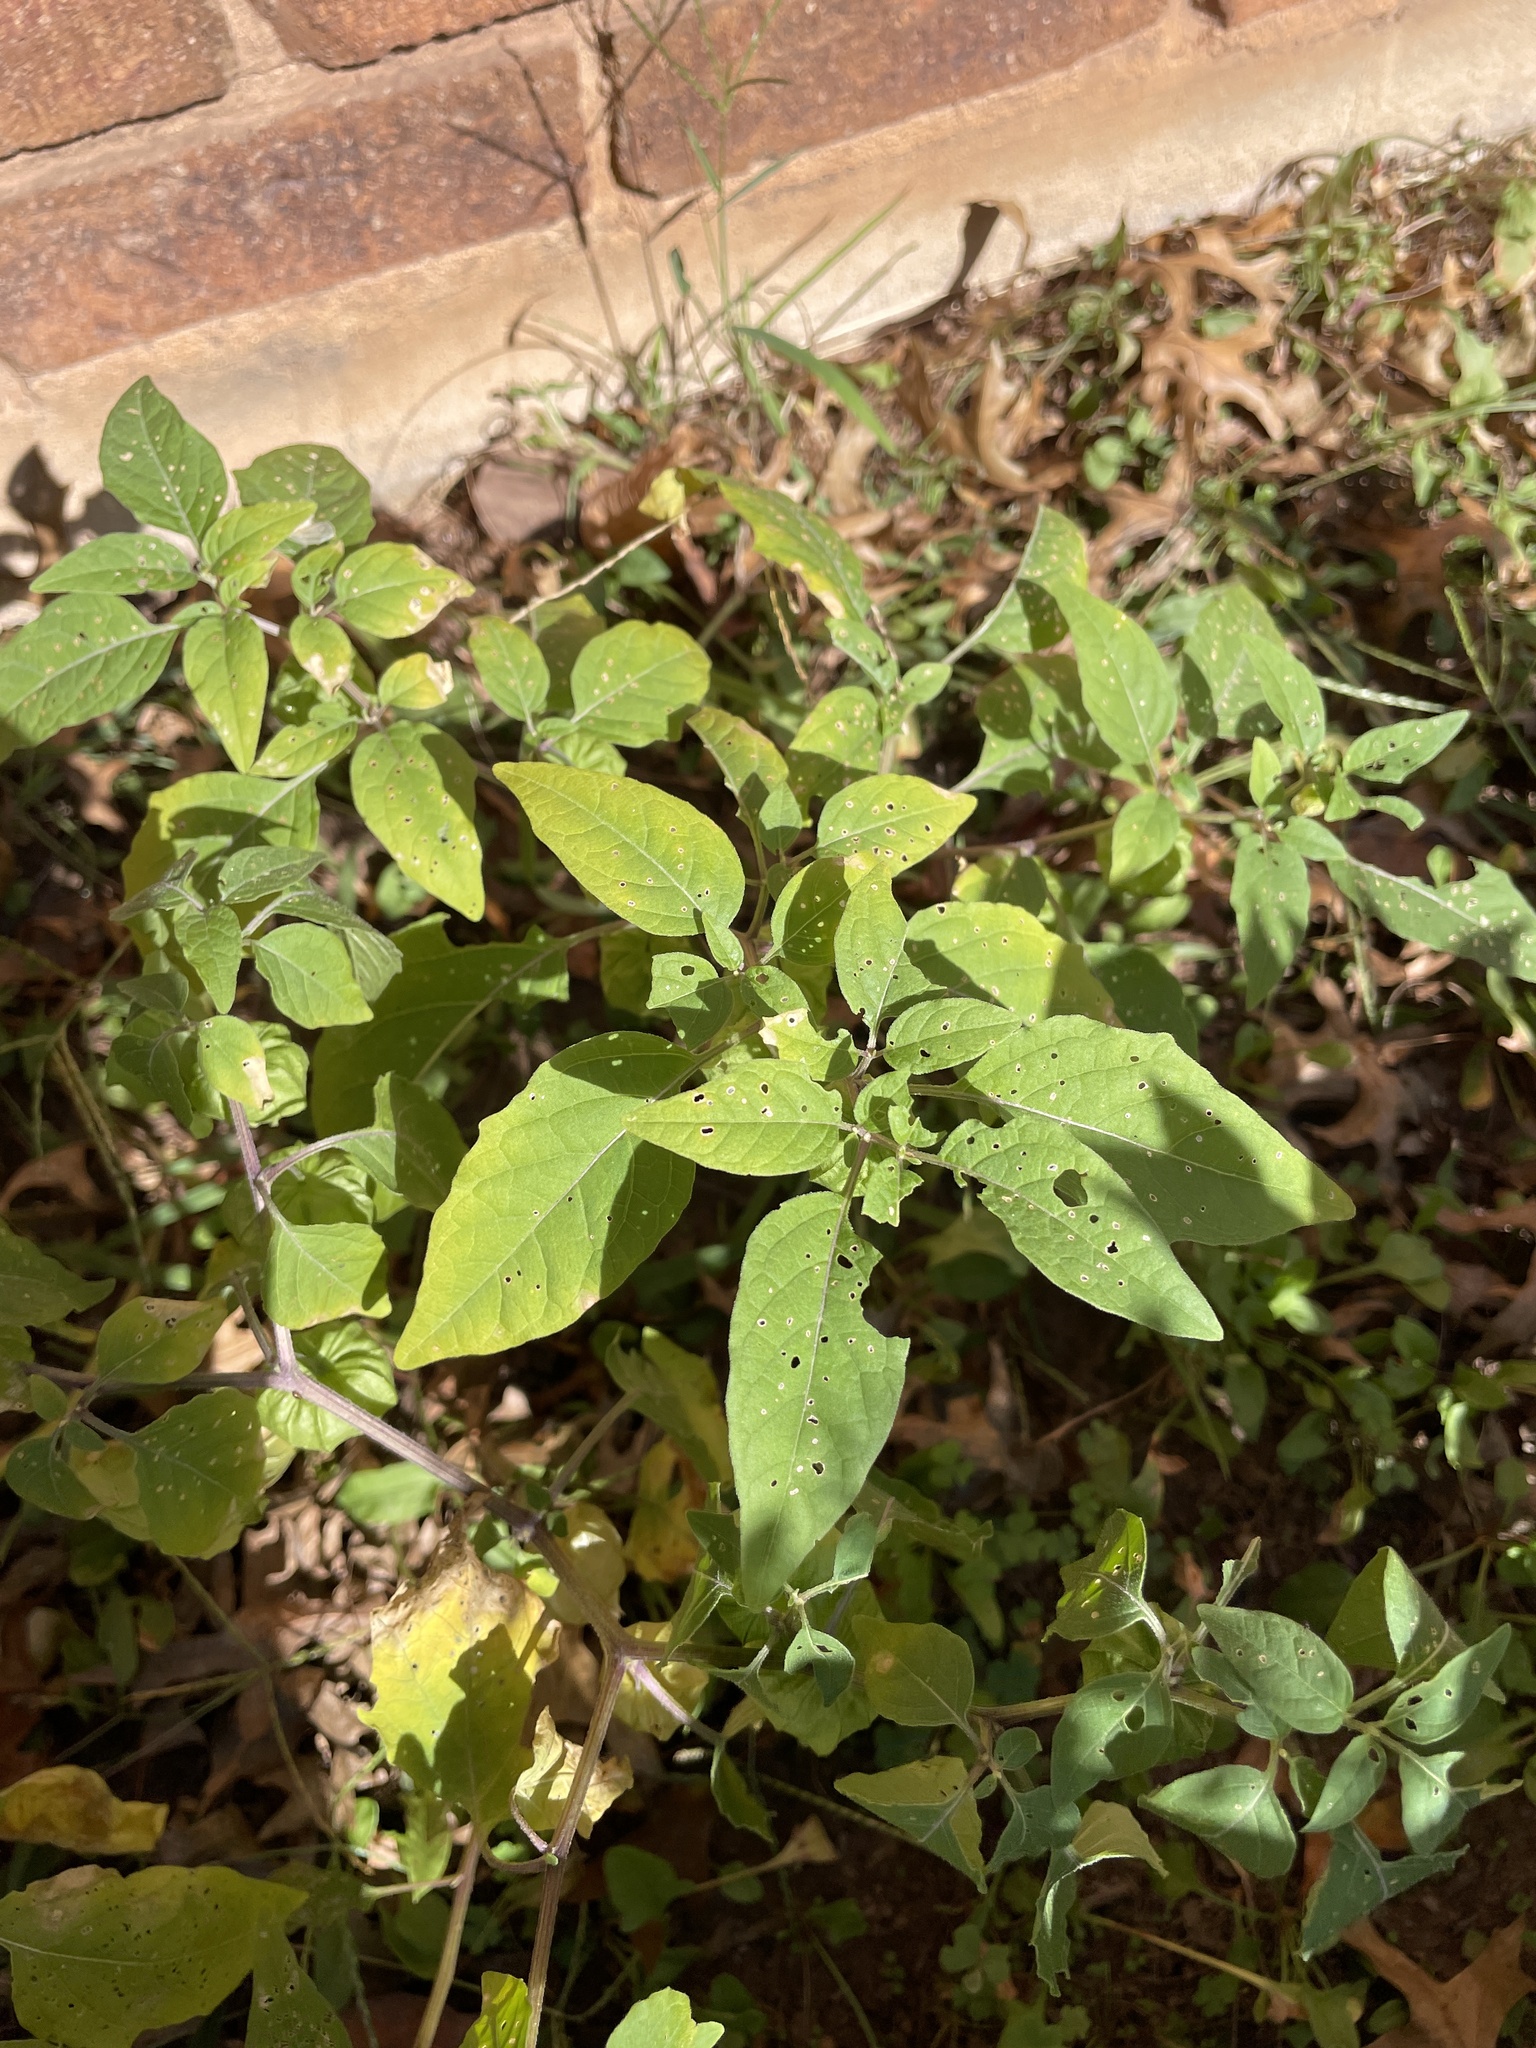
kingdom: Plantae
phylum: Tracheophyta
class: Magnoliopsida
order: Solanales
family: Solanaceae
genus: Physalis
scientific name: Physalis longifolia
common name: Common ground-cherry
